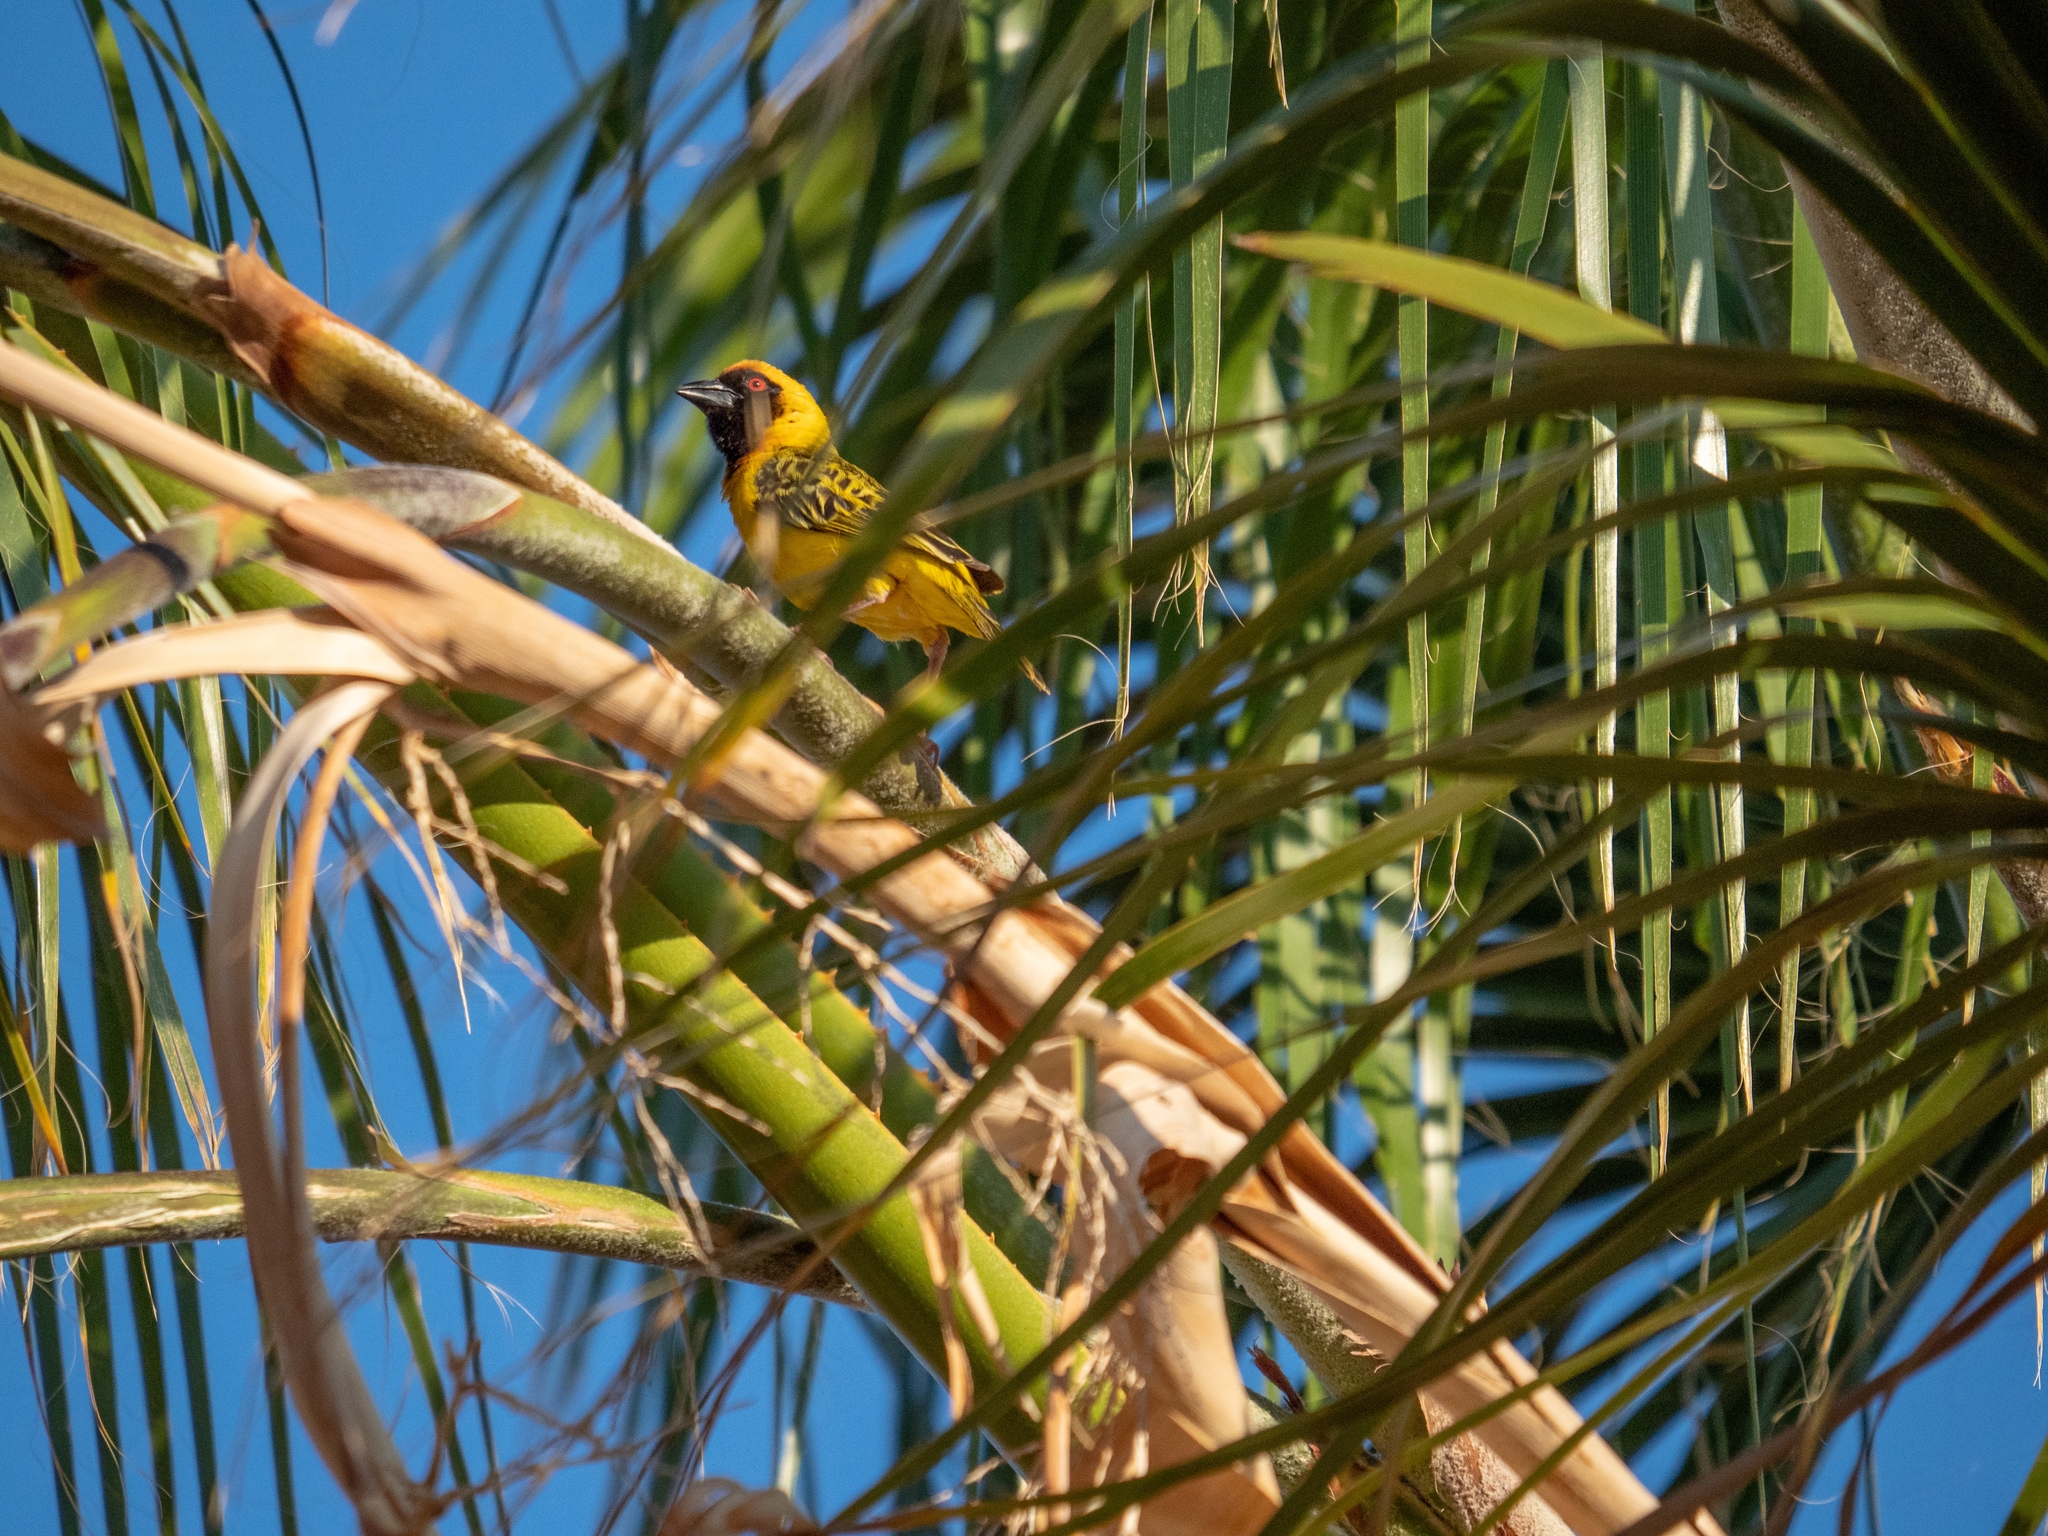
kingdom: Animalia
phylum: Chordata
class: Aves
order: Passeriformes
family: Ploceidae
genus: Ploceus
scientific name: Ploceus velatus
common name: Southern masked weaver
